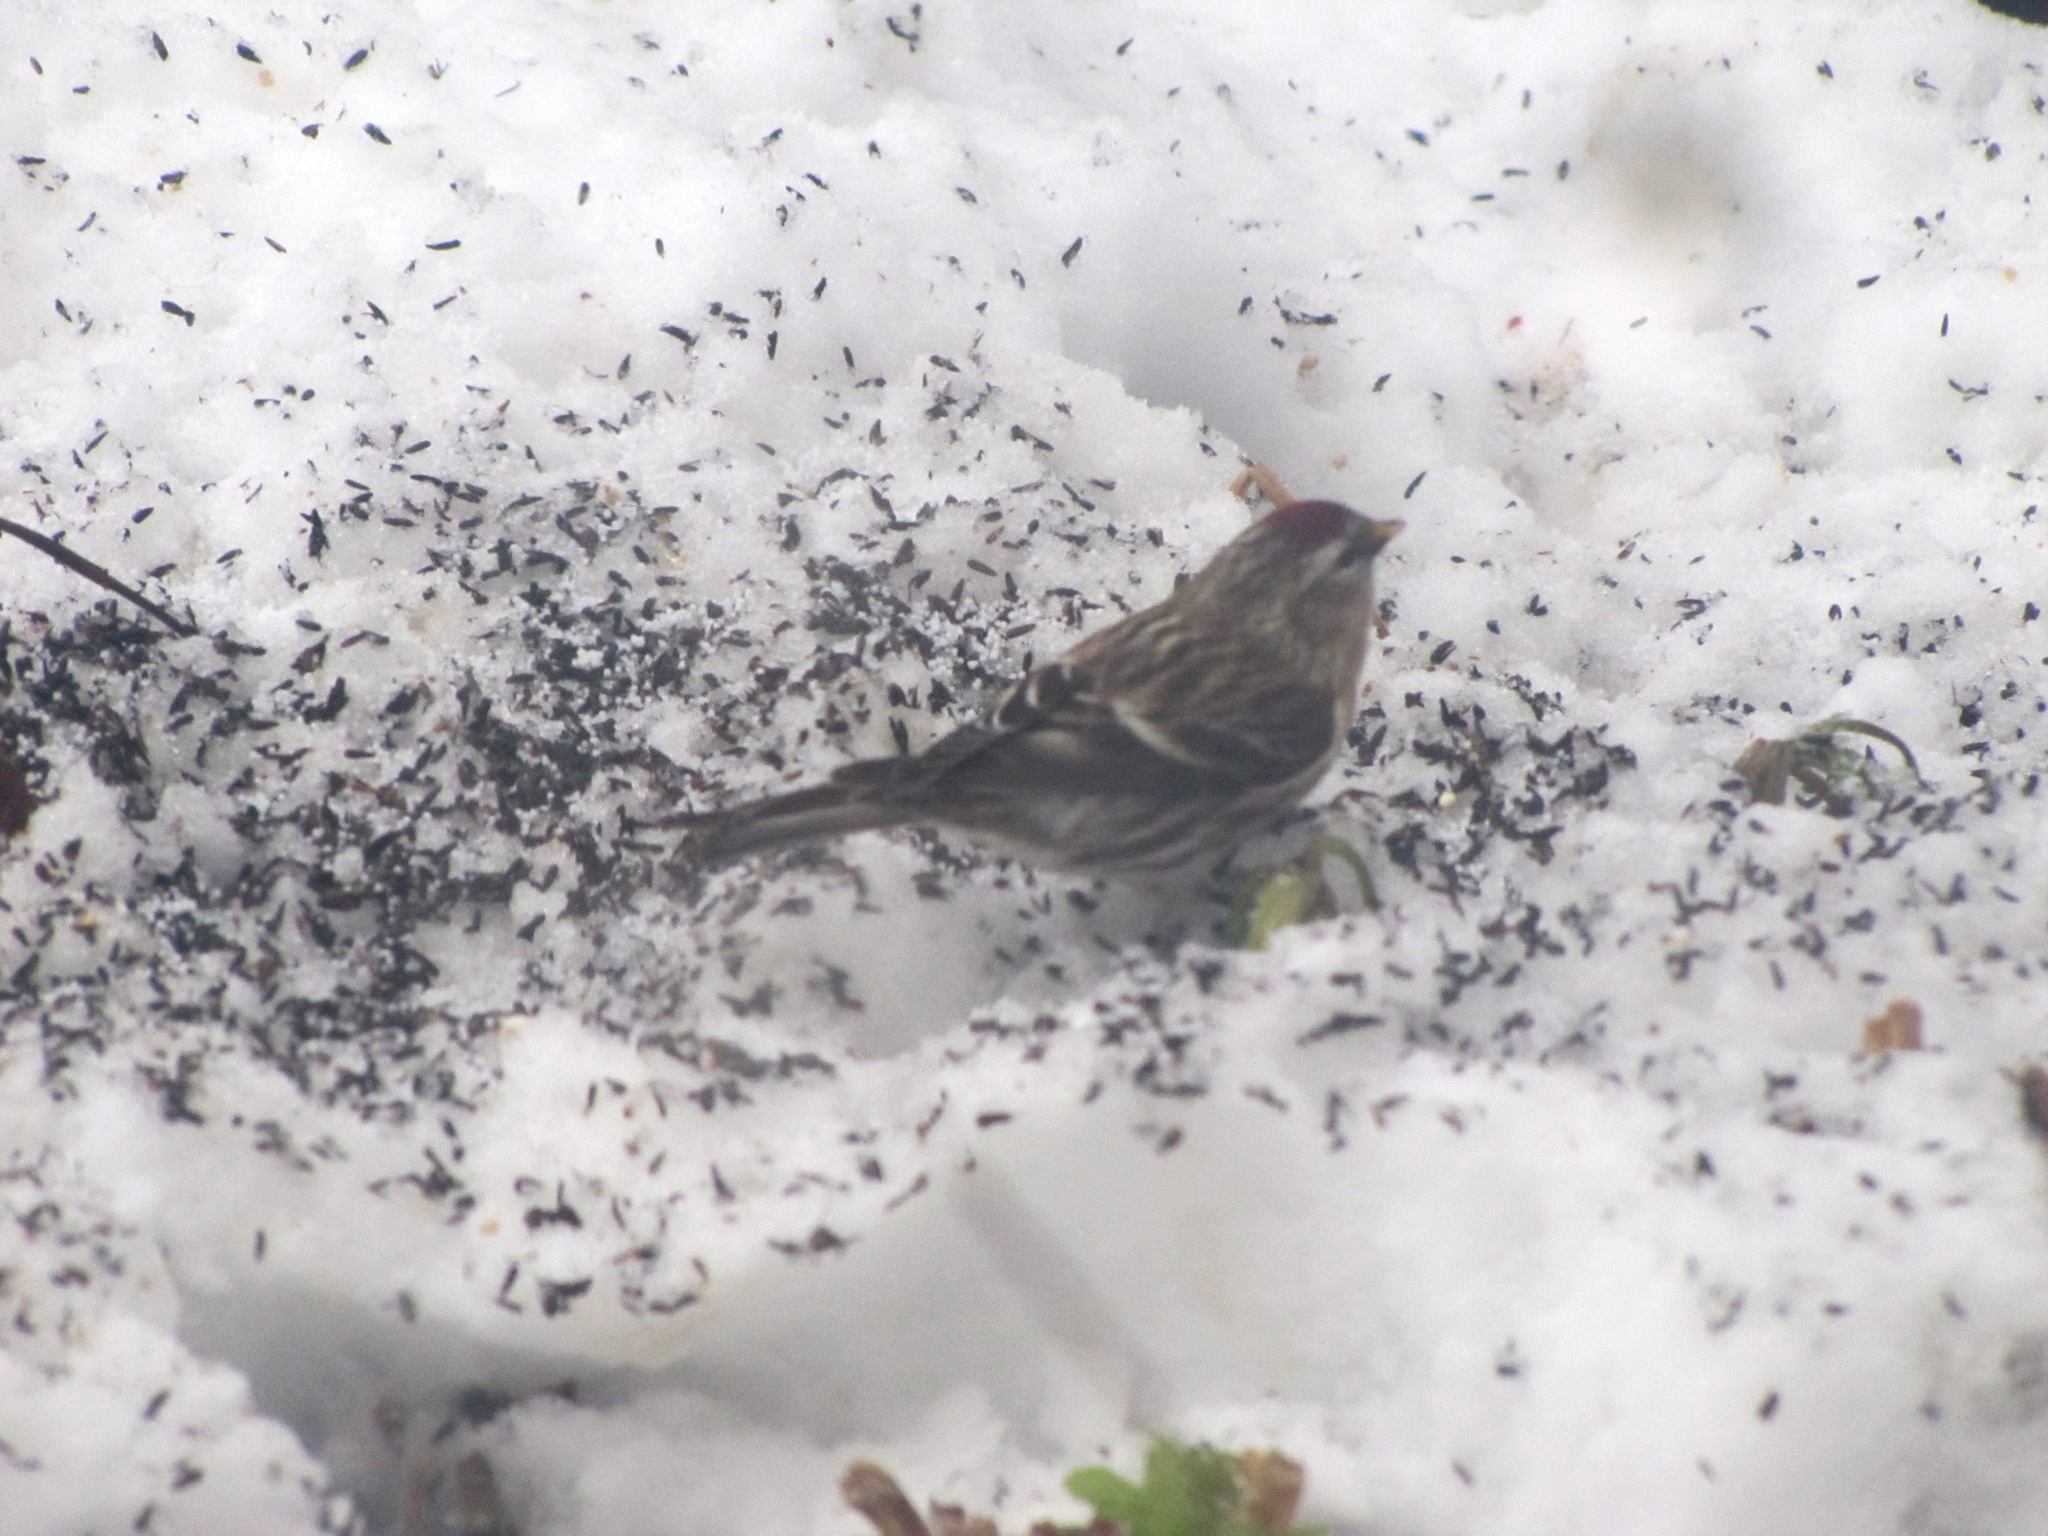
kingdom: Animalia
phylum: Chordata
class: Aves
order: Passeriformes
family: Fringillidae
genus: Acanthis
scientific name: Acanthis flammea
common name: Common redpoll
